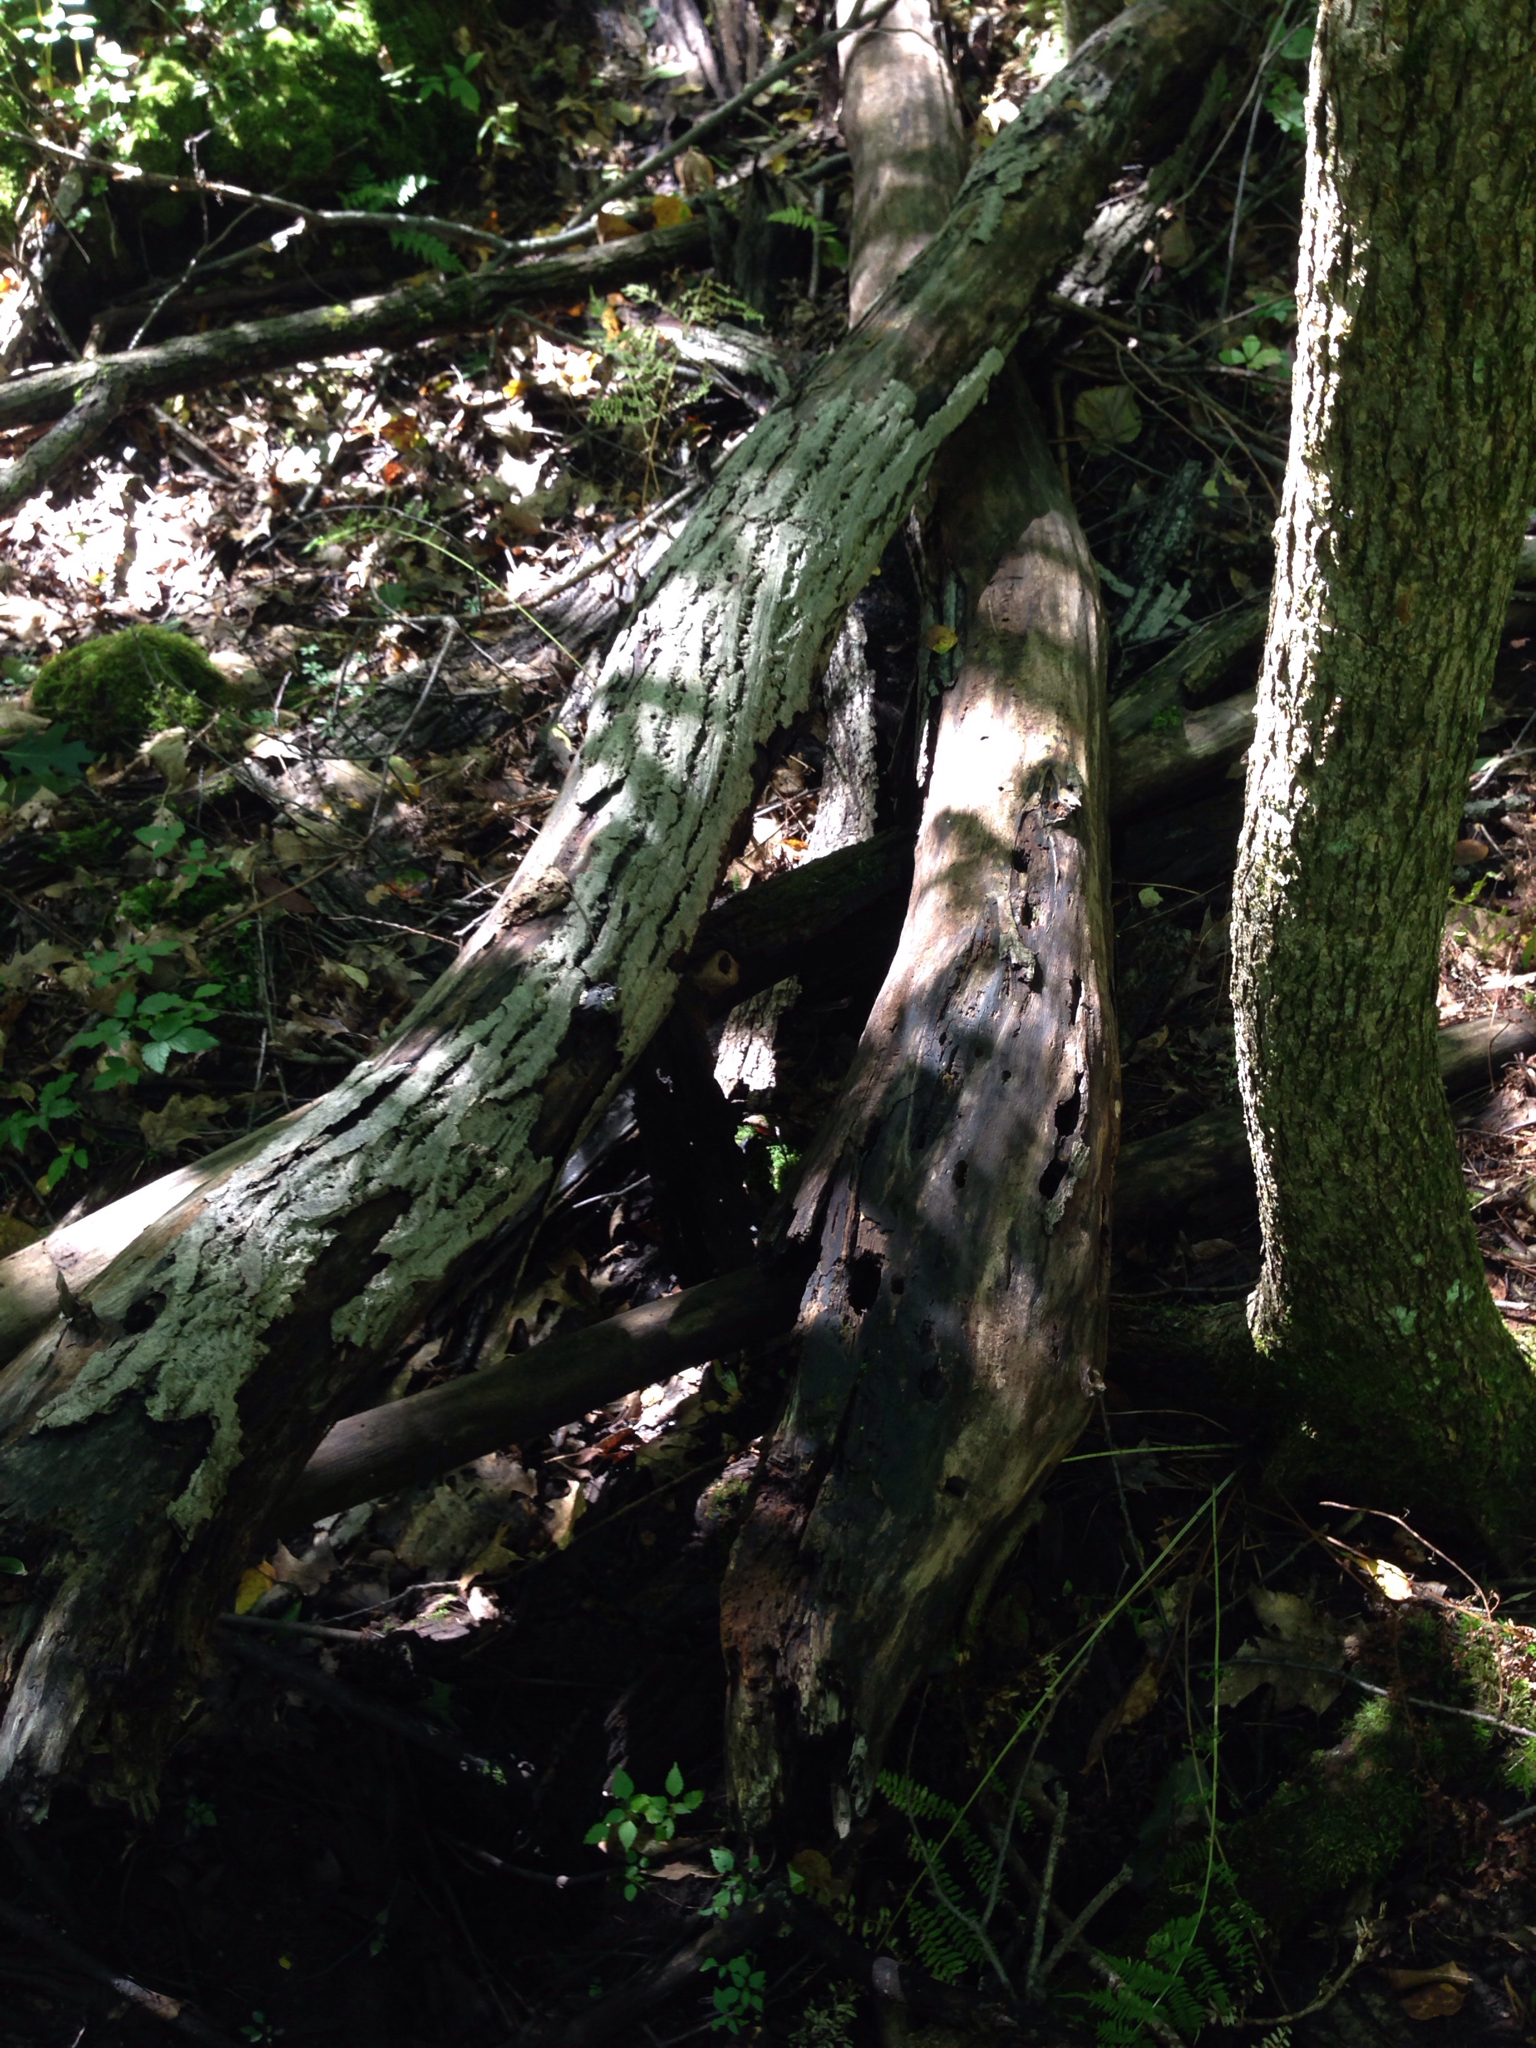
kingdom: Plantae
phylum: Tracheophyta
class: Magnoliopsida
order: Fagales
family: Juglandaceae
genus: Juglans
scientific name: Juglans cinerea
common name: Butternut
